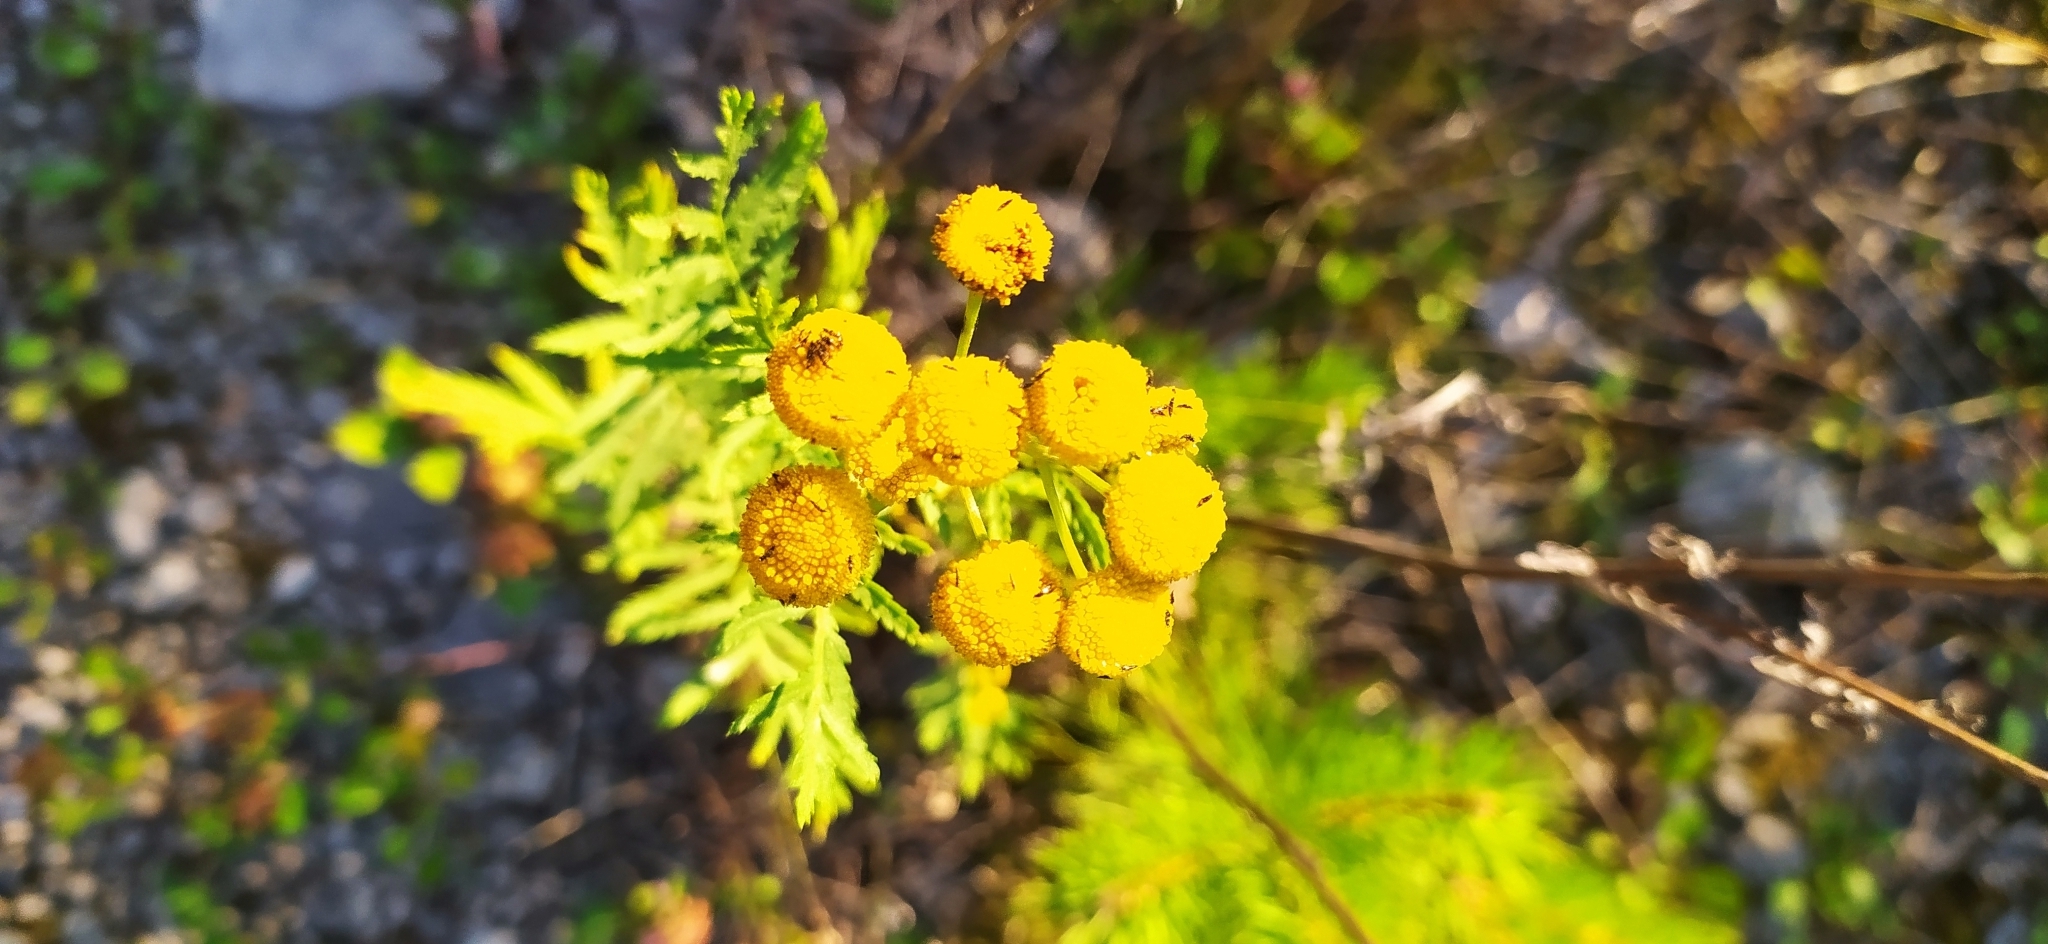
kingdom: Plantae
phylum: Tracheophyta
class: Magnoliopsida
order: Asterales
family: Asteraceae
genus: Tanacetum
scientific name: Tanacetum vulgare
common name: Common tansy
